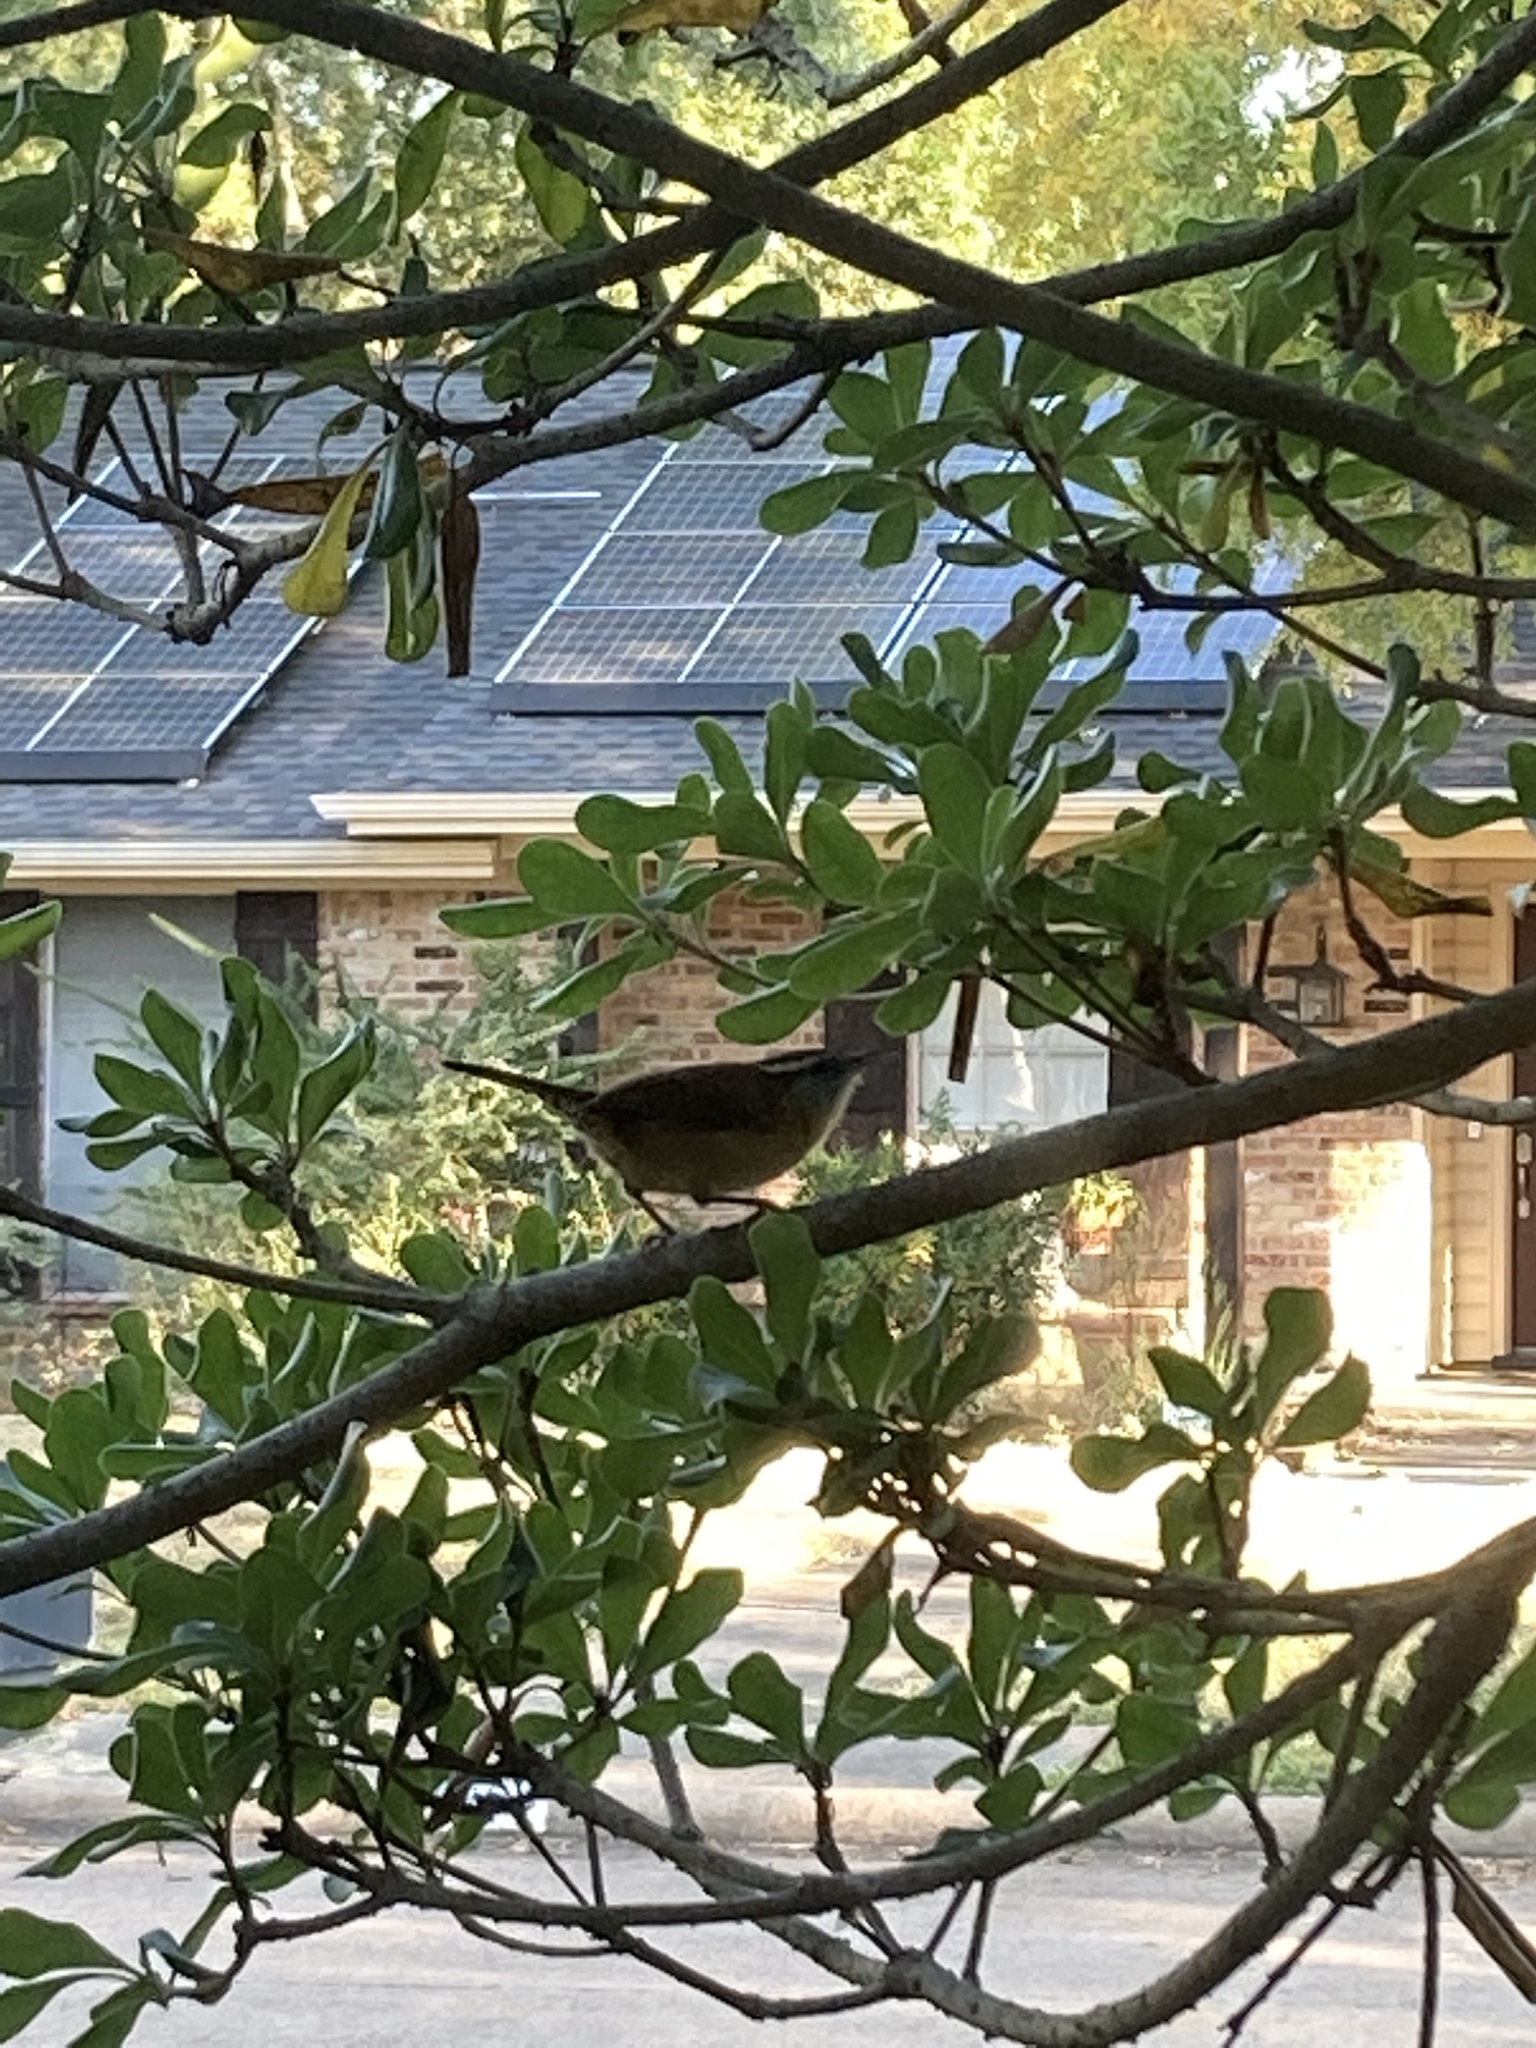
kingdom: Animalia
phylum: Chordata
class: Aves
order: Passeriformes
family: Troglodytidae
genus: Thryothorus
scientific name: Thryothorus ludovicianus
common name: Carolina wren
